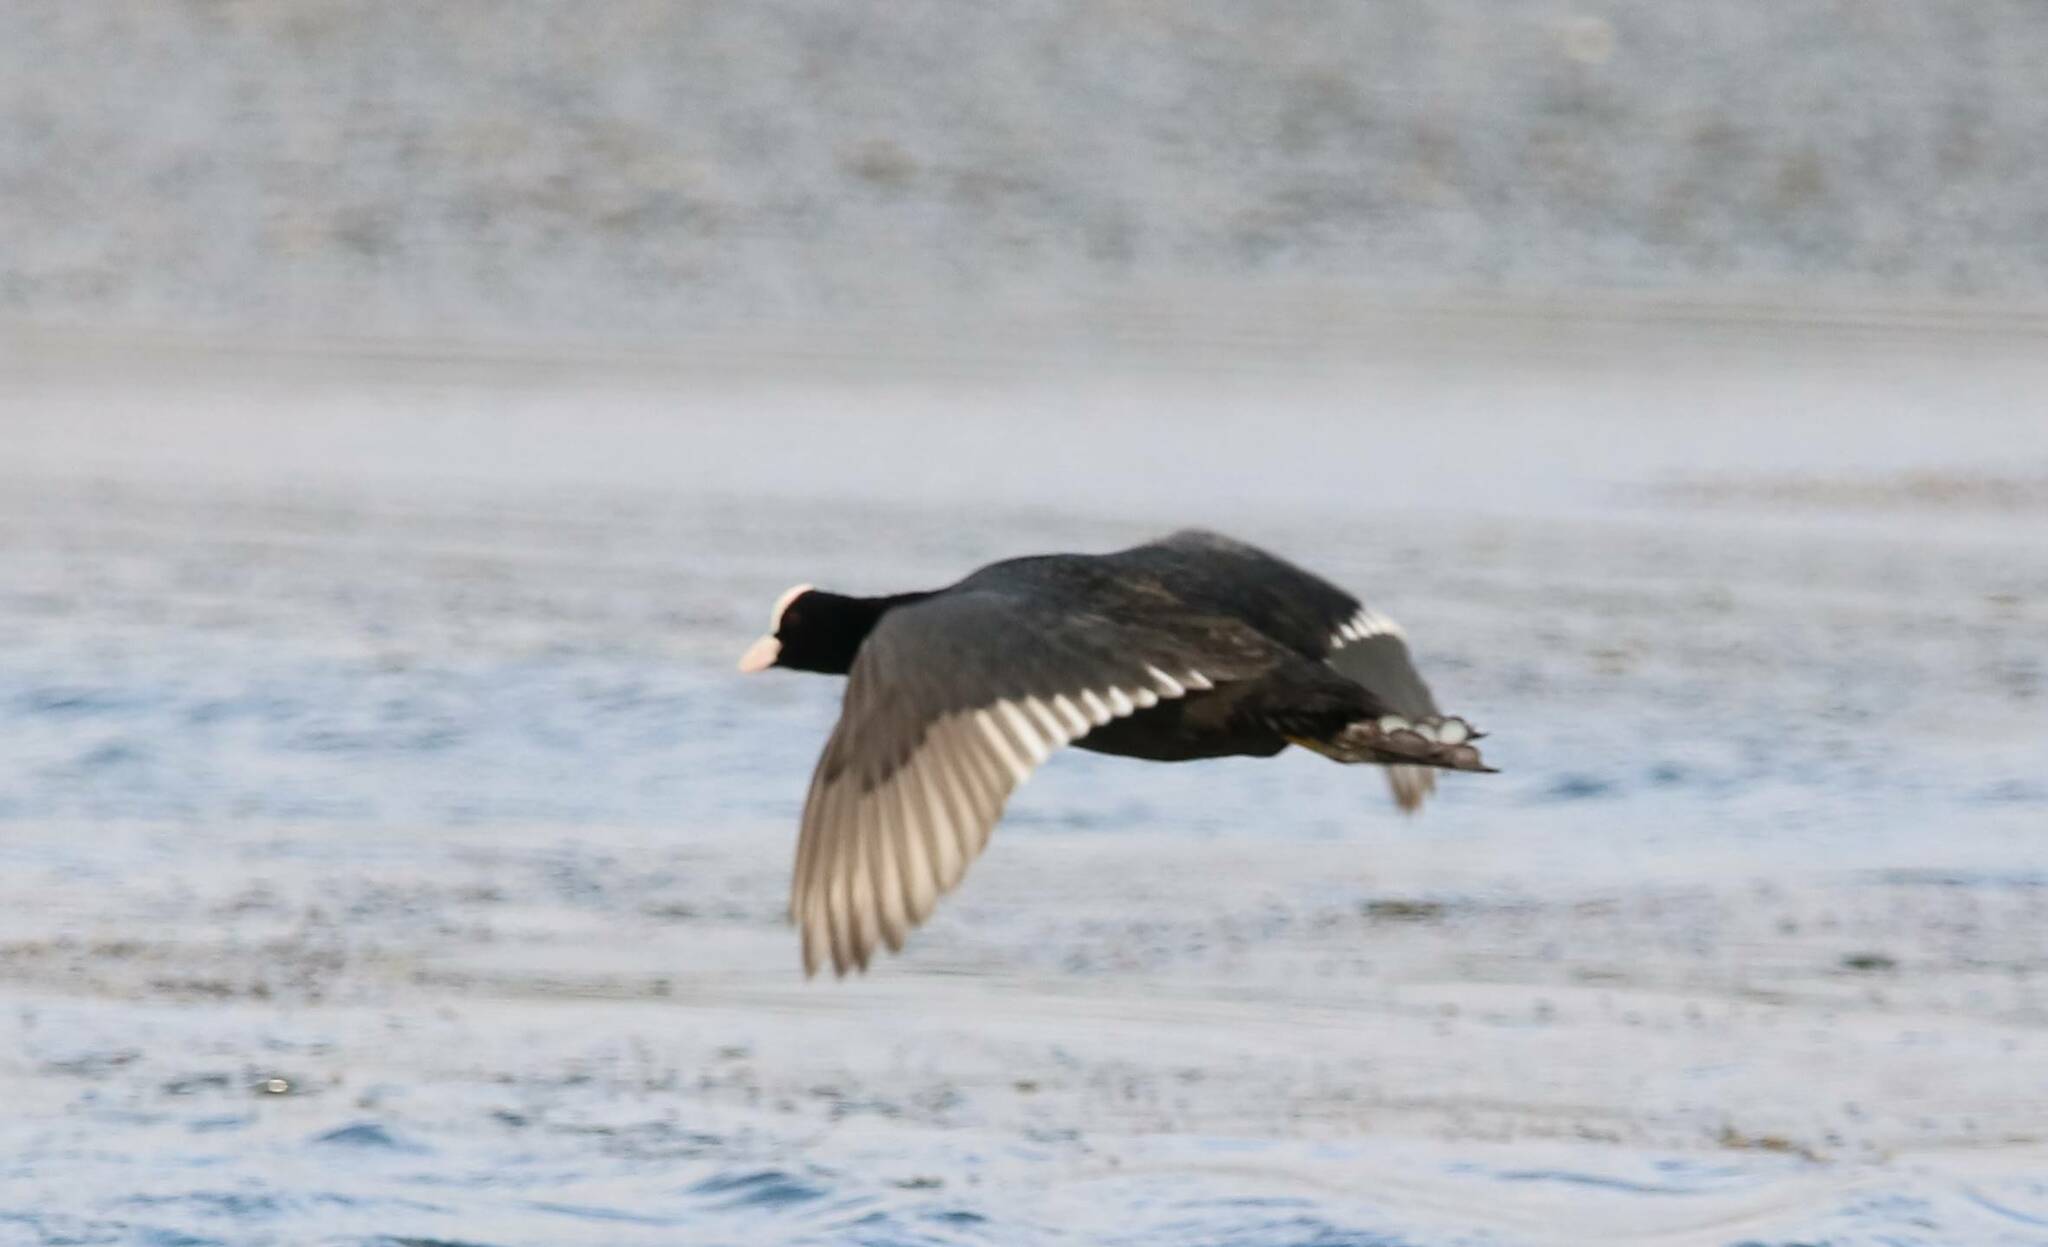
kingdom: Animalia
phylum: Chordata
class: Aves
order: Gruiformes
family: Rallidae
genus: Fulica
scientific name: Fulica atra
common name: Eurasian coot
